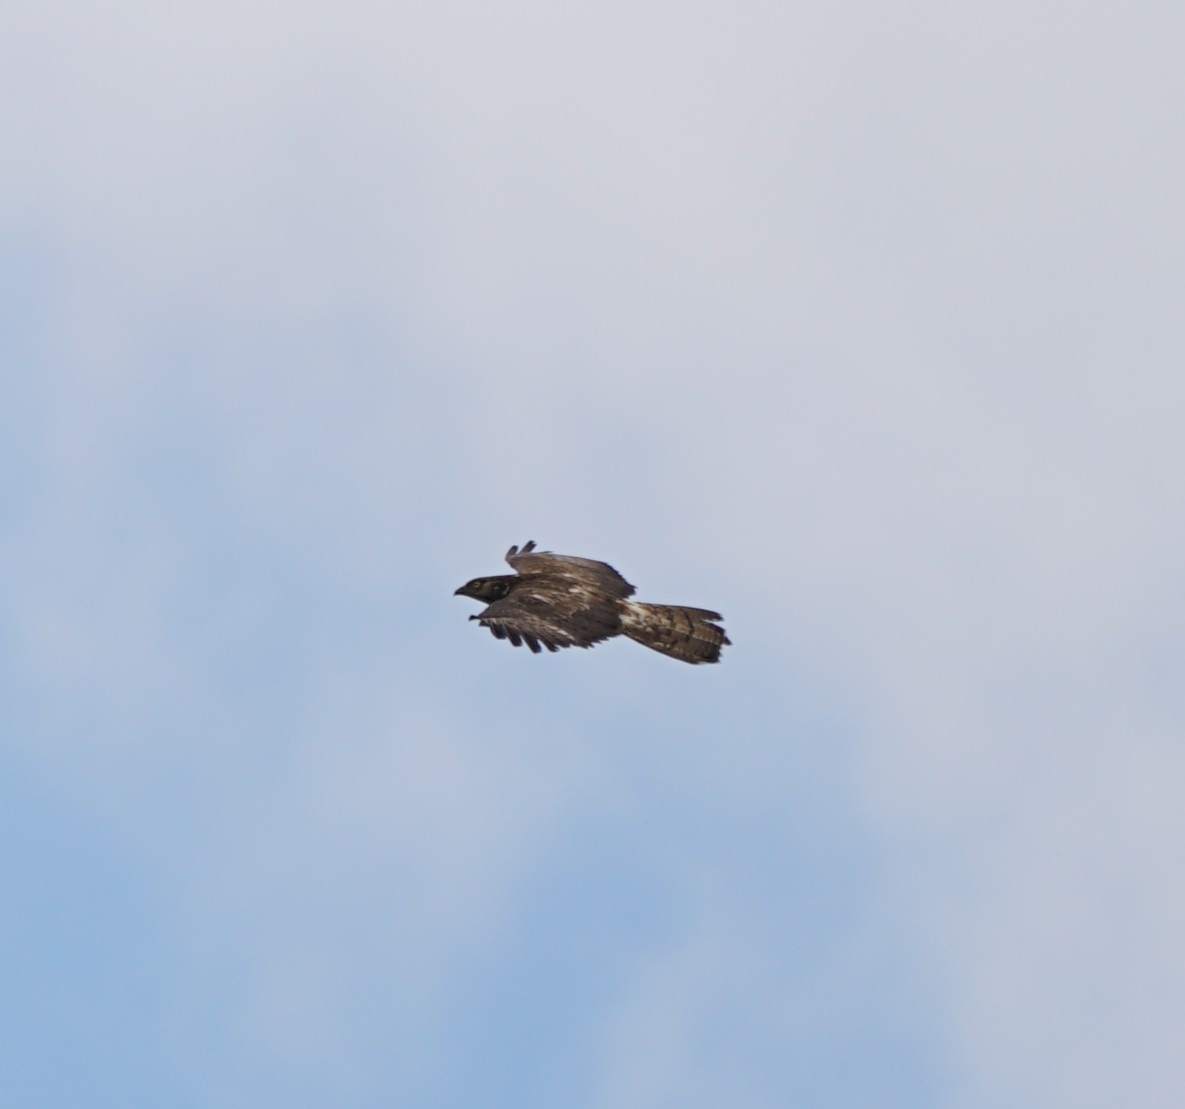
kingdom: Animalia
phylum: Chordata
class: Aves
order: Accipitriformes
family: Accipitridae
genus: Pernis
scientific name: Pernis apivorus
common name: European honey buzzard
